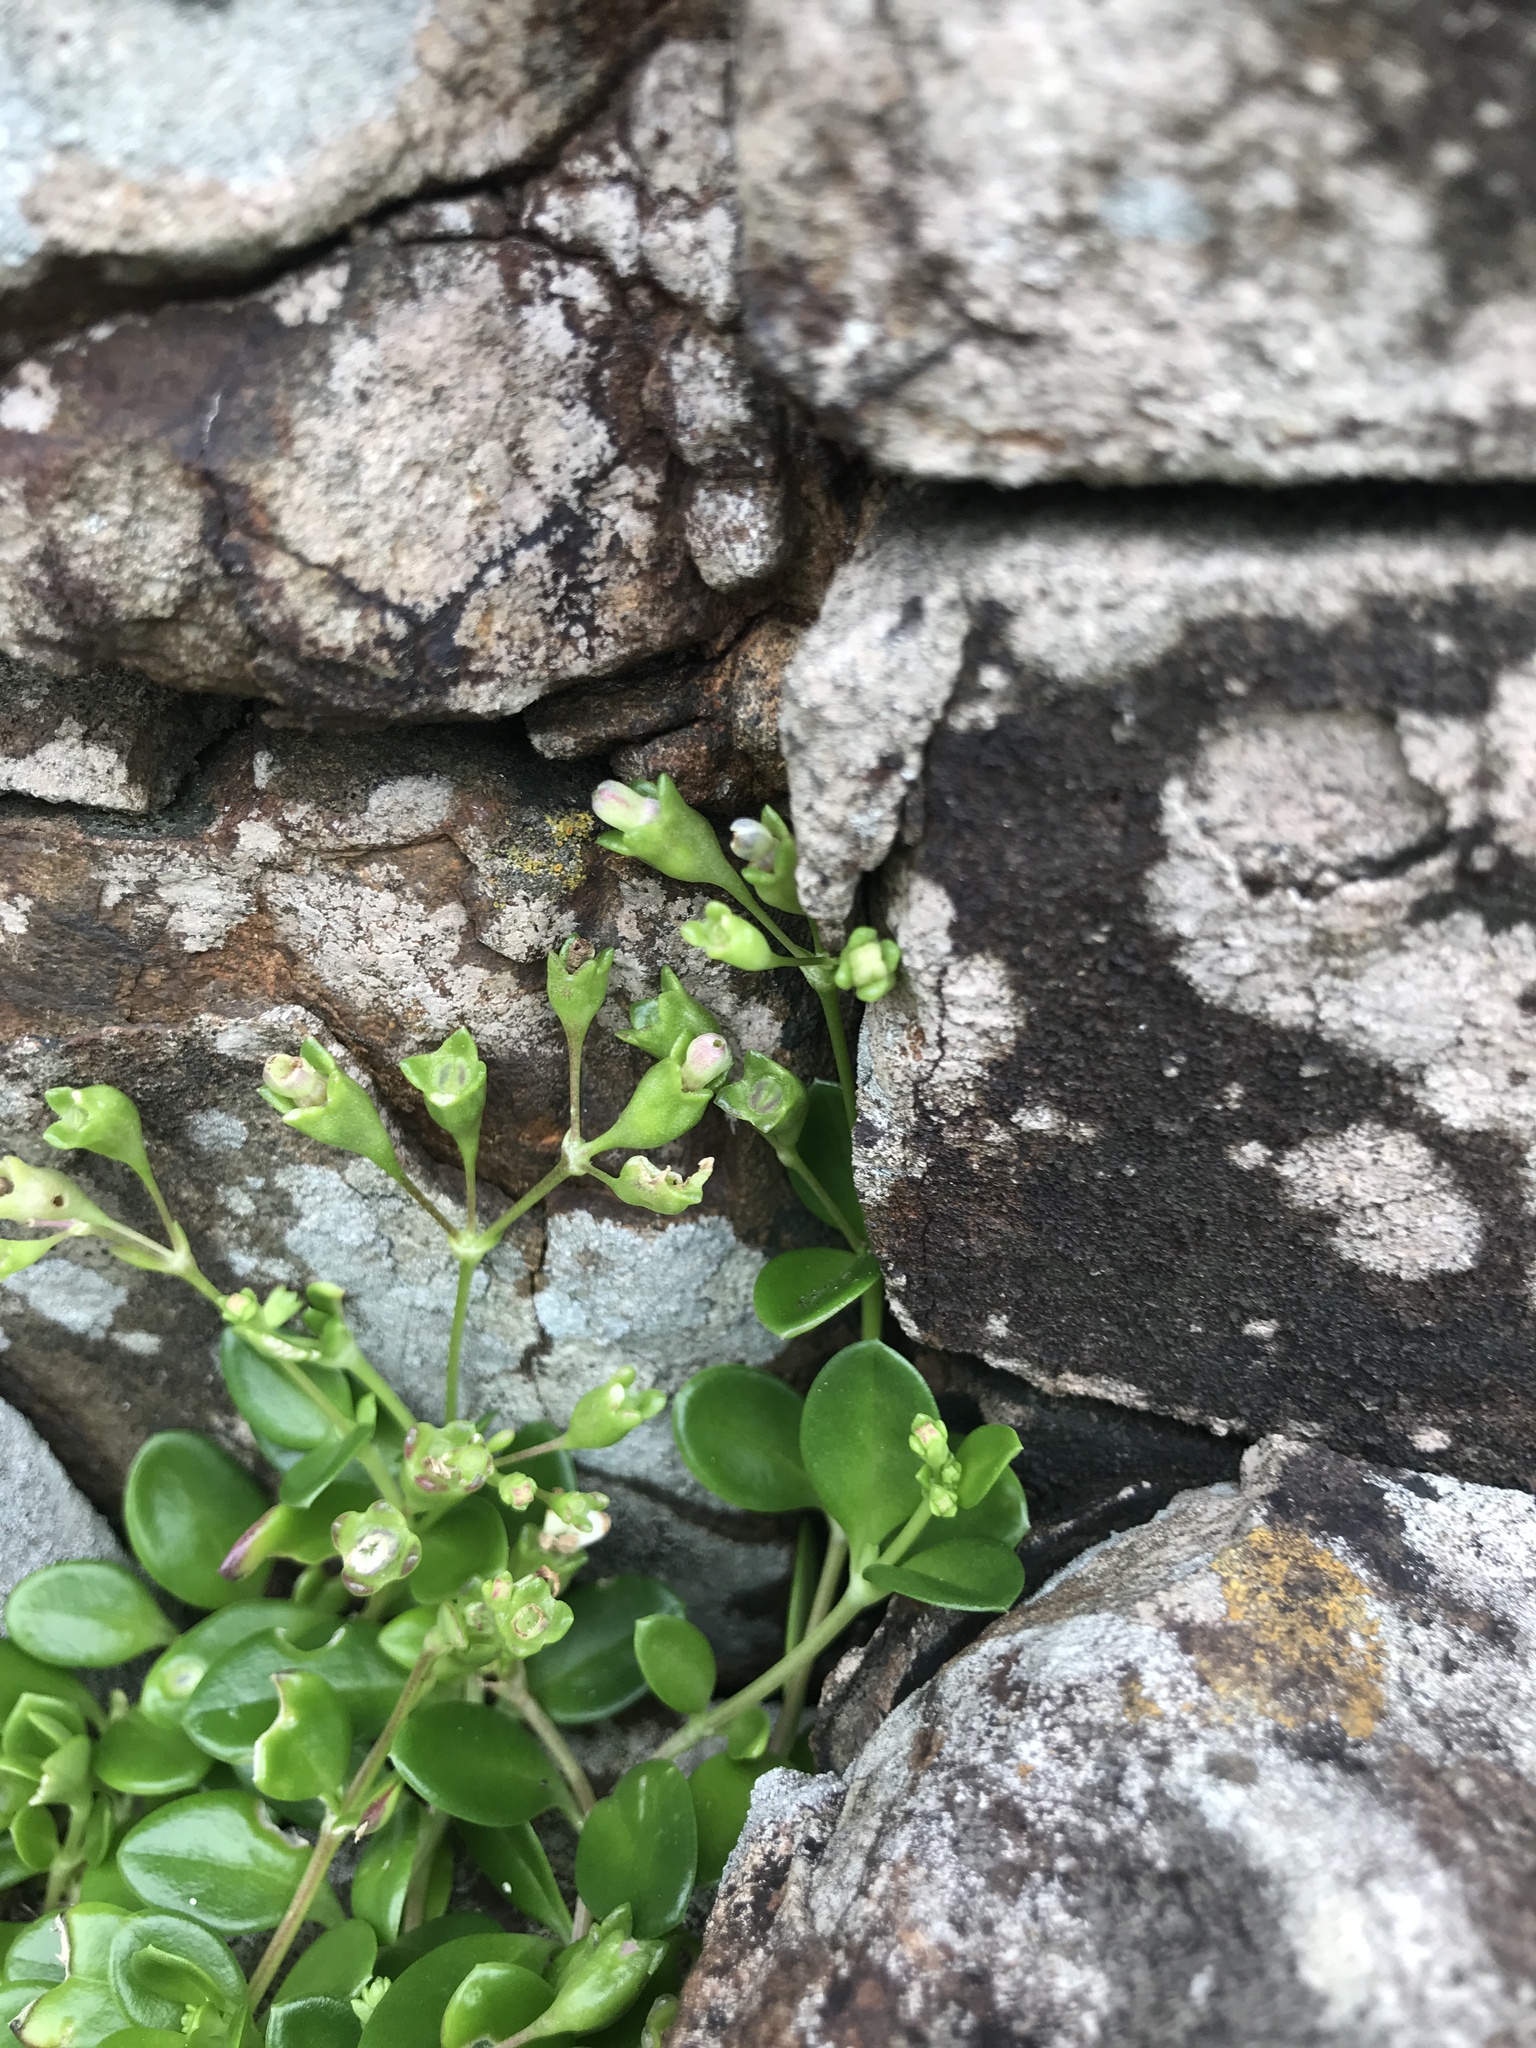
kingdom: Plantae
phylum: Tracheophyta
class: Magnoliopsida
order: Gentianales
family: Rubiaceae
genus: Leptopetalum
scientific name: Leptopetalum strigulosum
